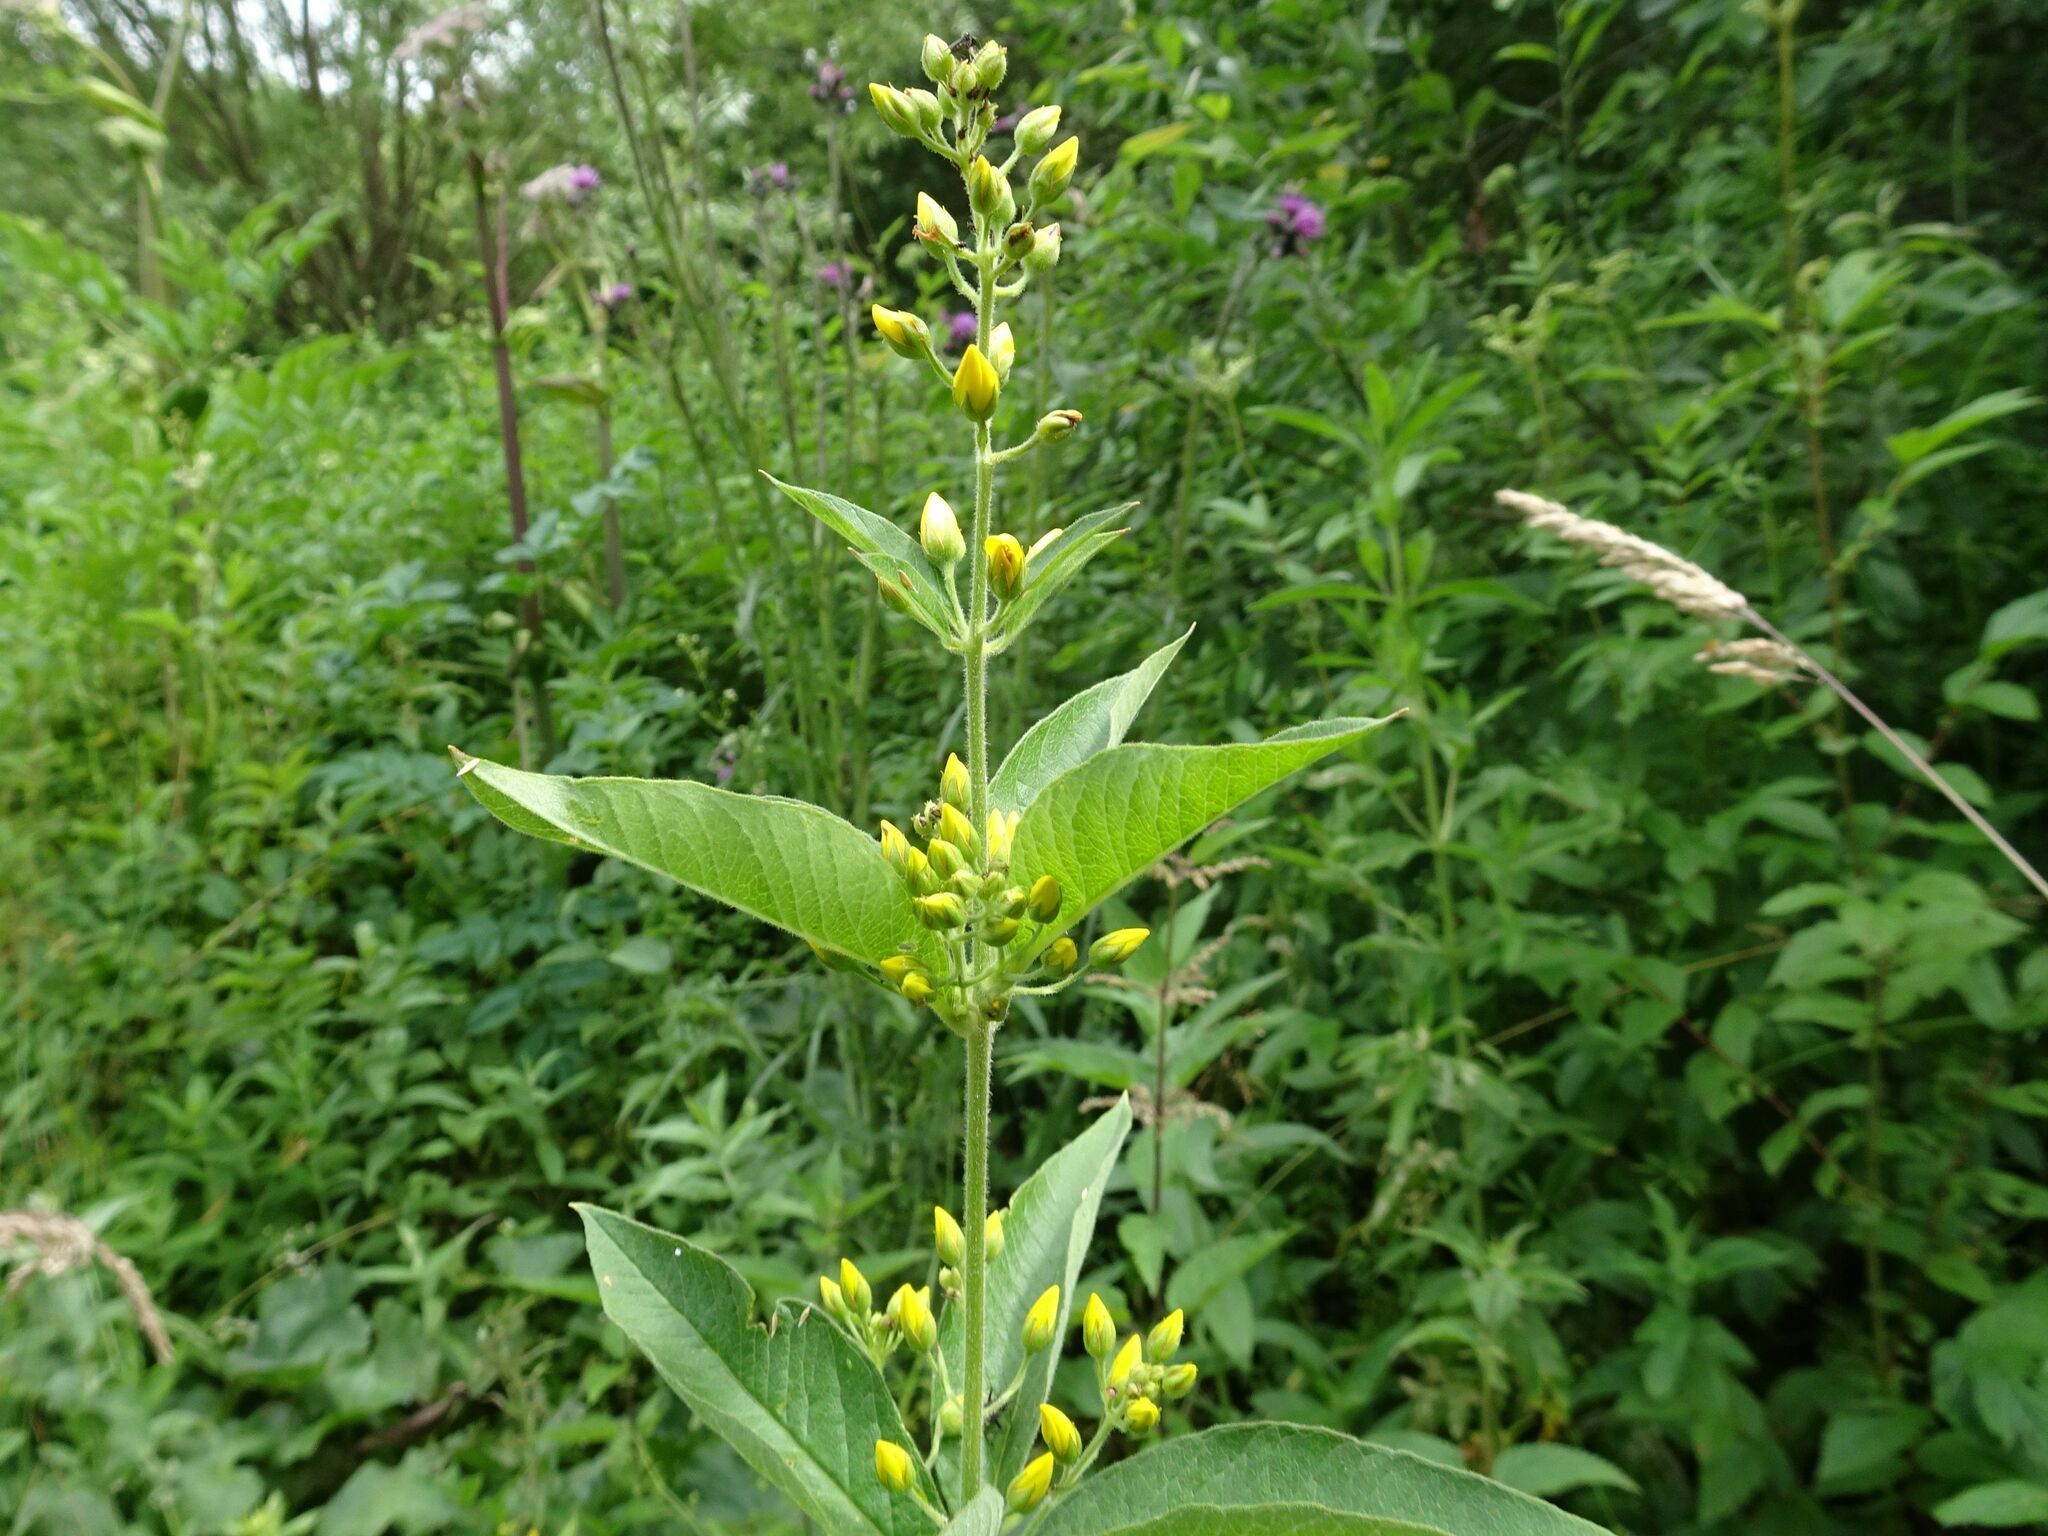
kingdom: Plantae
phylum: Tracheophyta
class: Magnoliopsida
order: Ericales
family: Primulaceae
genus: Lysimachia
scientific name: Lysimachia vulgaris
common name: Yellow loosestrife
